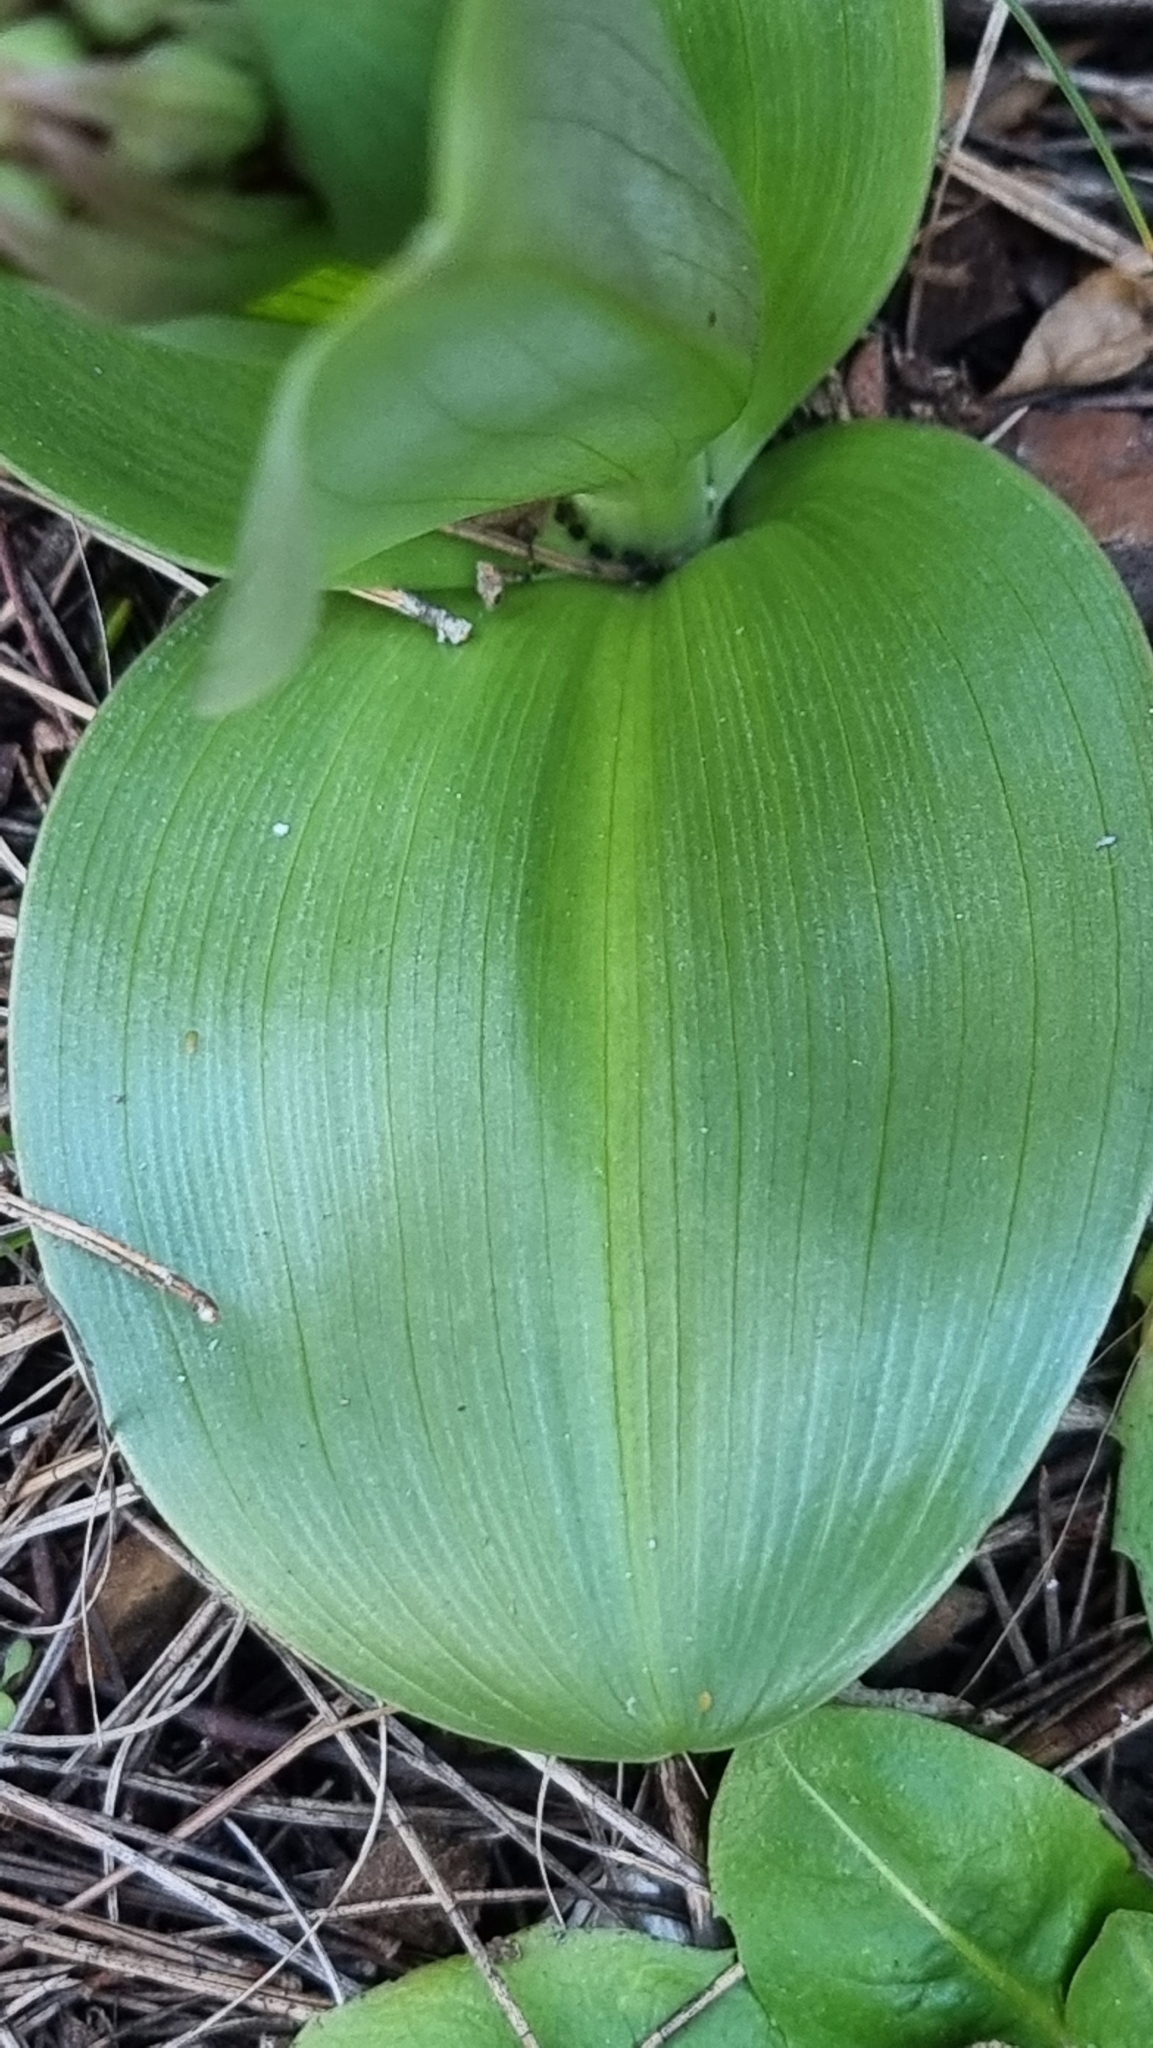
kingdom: Plantae
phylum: Tracheophyta
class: Liliopsida
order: Asparagales
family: Orchidaceae
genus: Himantoglossum
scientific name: Himantoglossum robertianum
